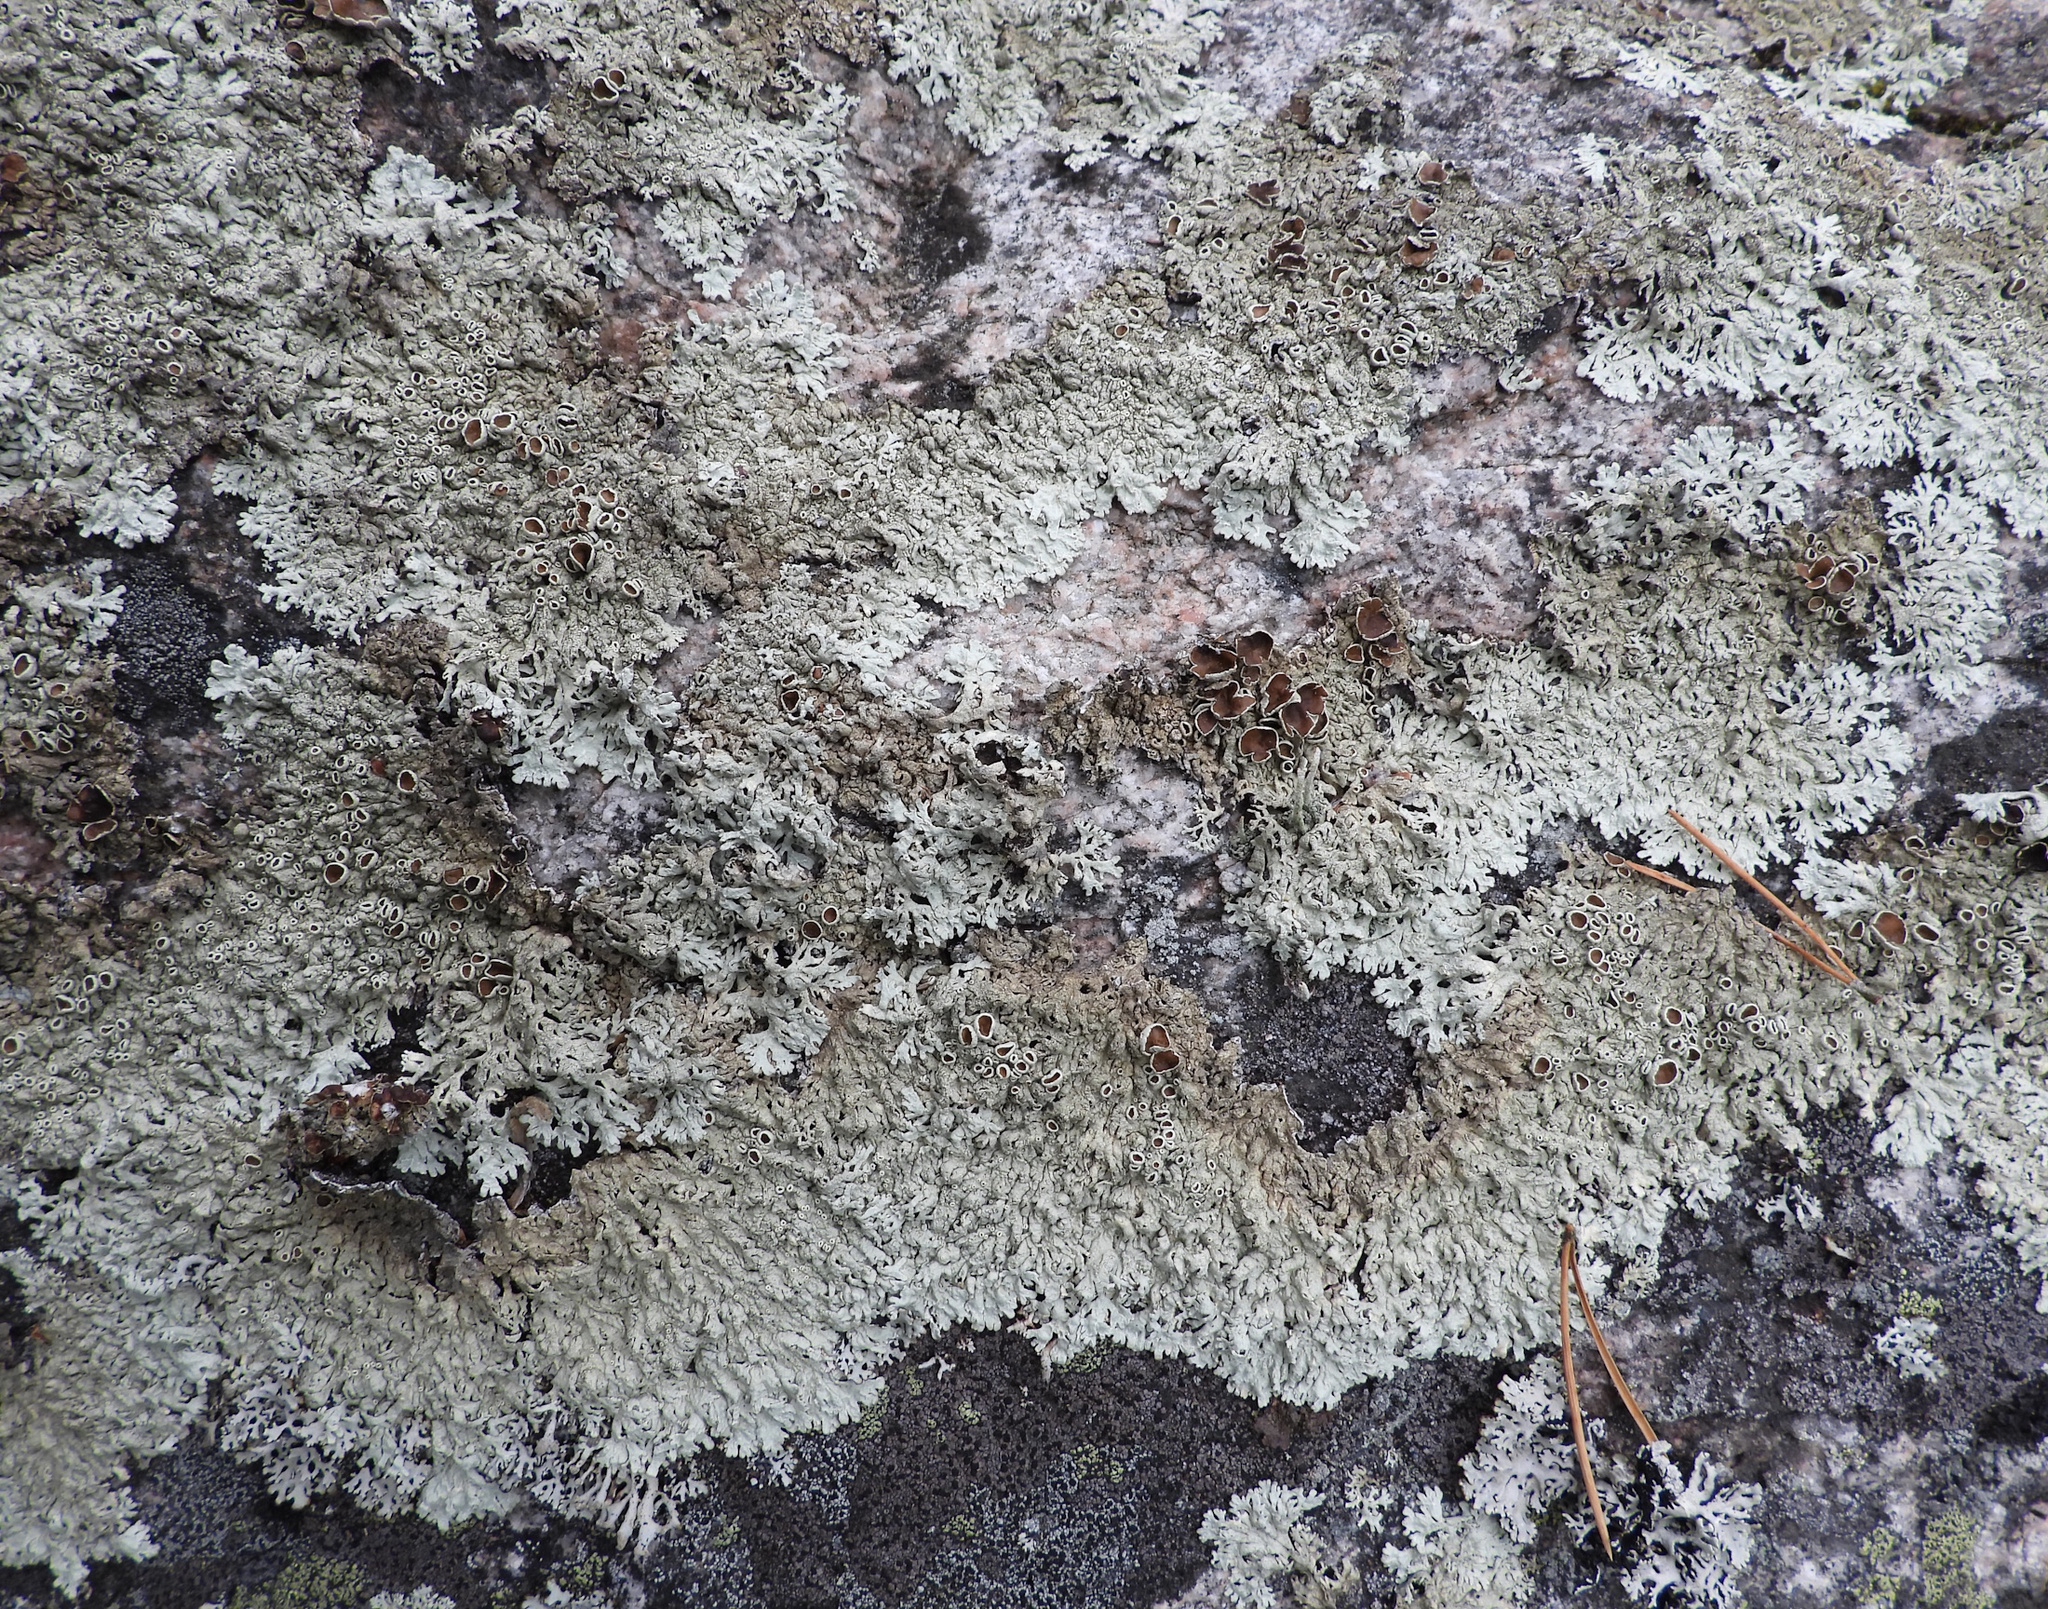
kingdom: Fungi
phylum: Ascomycota
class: Lecanoromycetes
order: Lecanorales
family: Parmeliaceae
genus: Arctoparmelia
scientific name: Arctoparmelia centrifuga
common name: Concentric ring lichen
